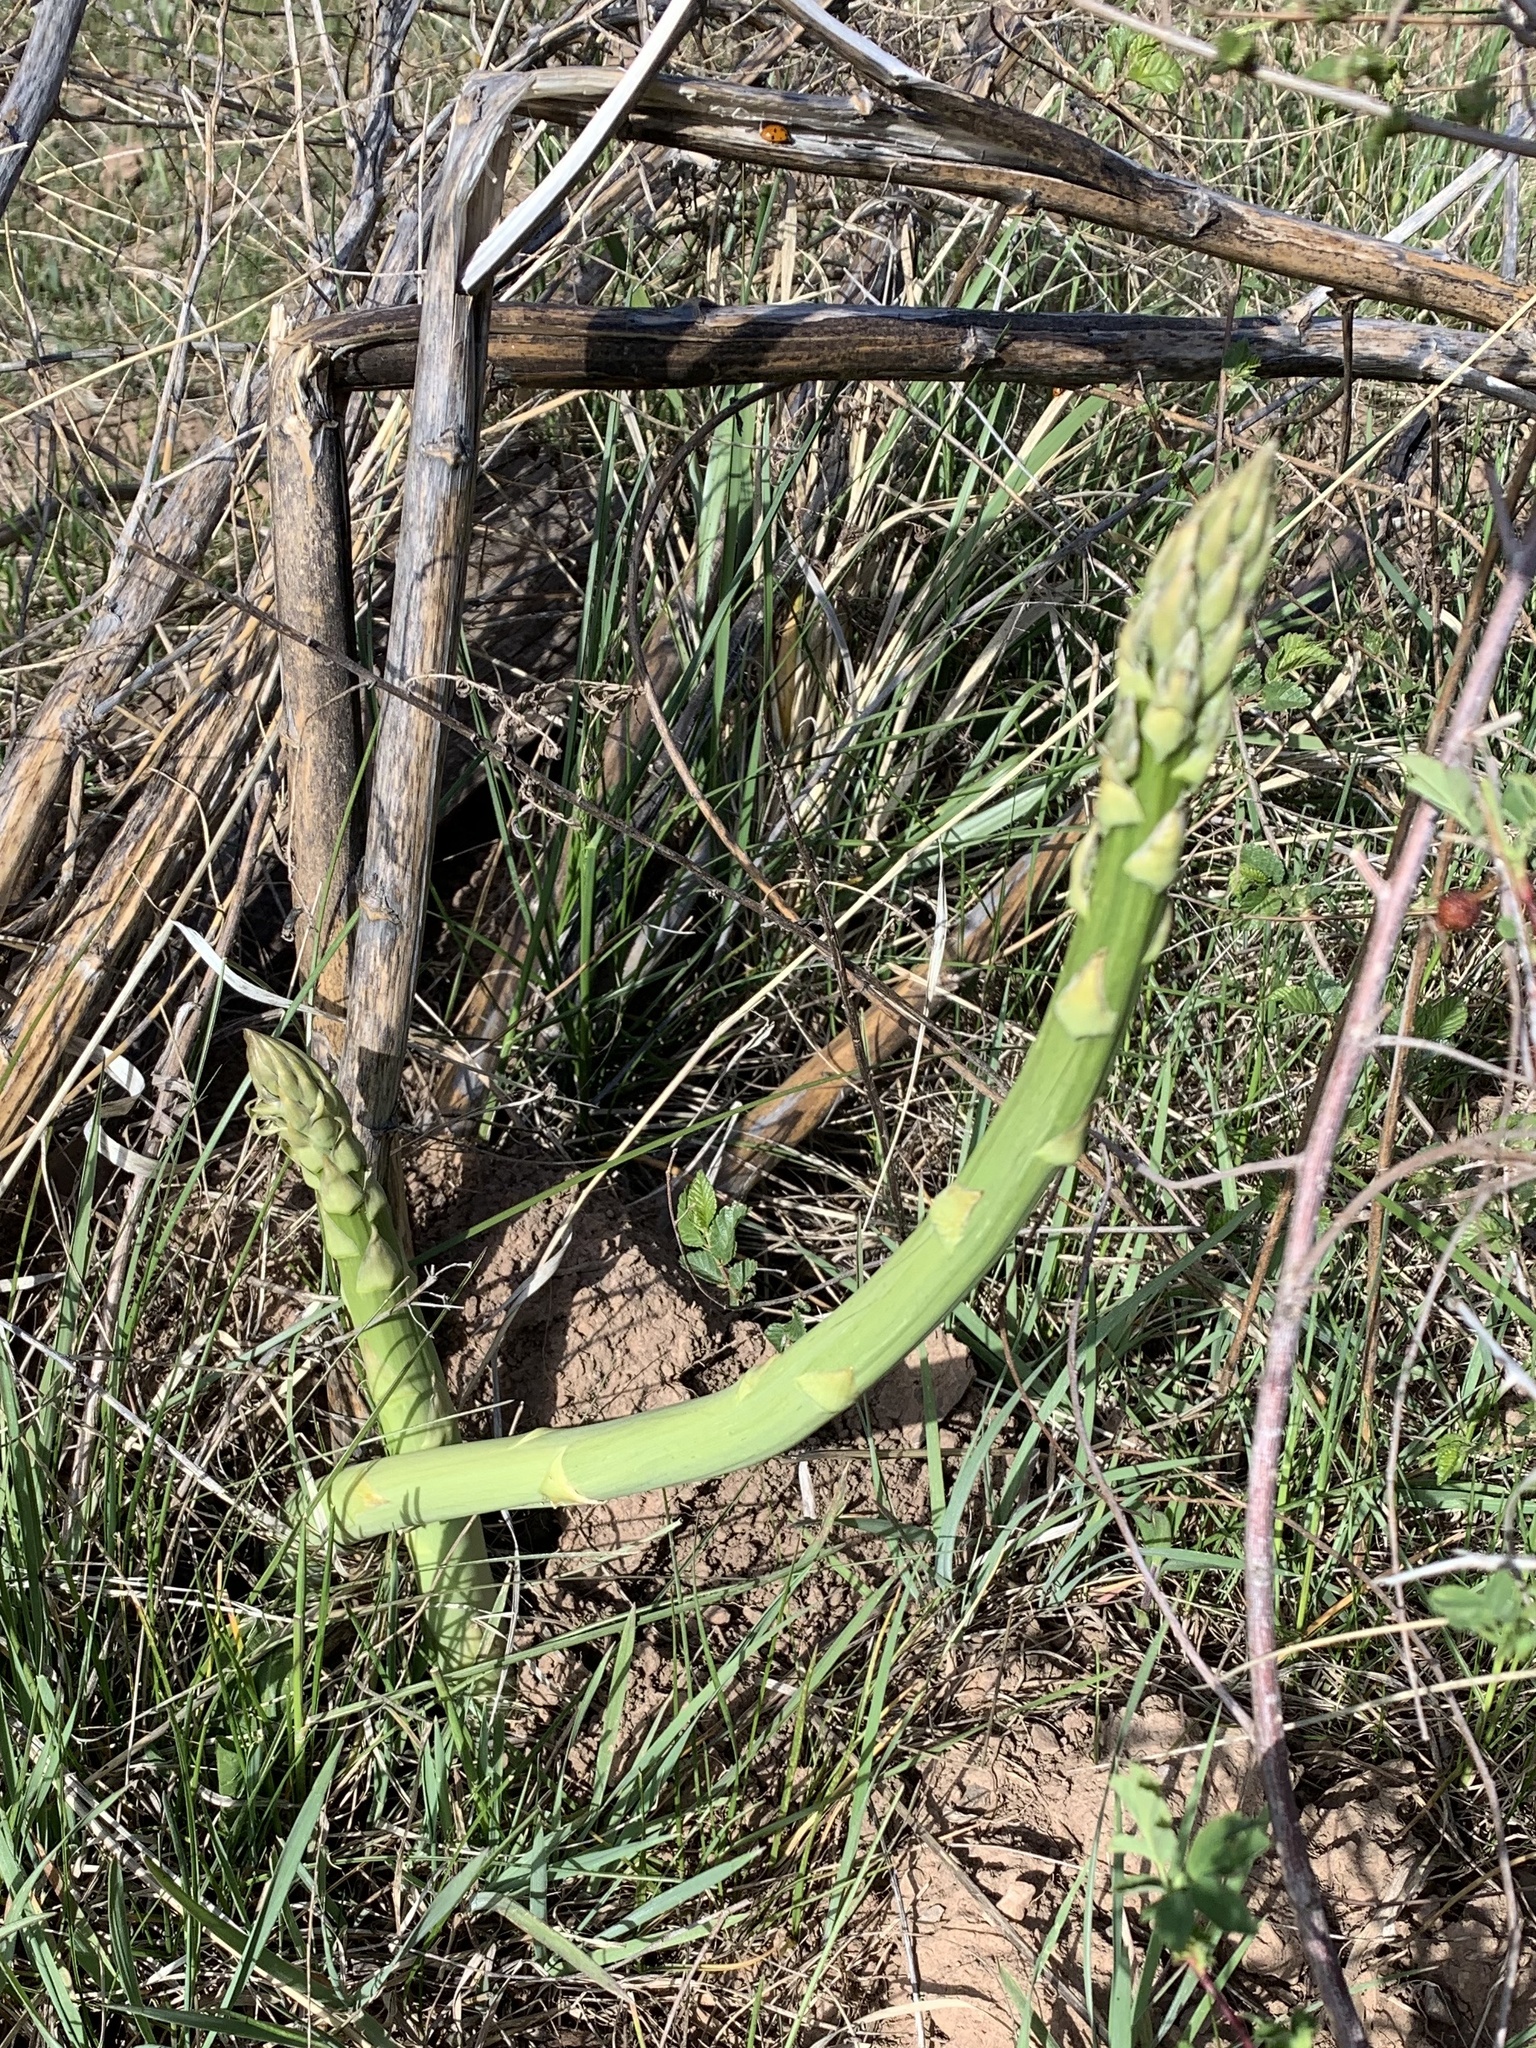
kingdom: Plantae
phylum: Tracheophyta
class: Liliopsida
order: Asparagales
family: Asparagaceae
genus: Asparagus
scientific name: Asparagus officinalis
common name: Garden asparagus
